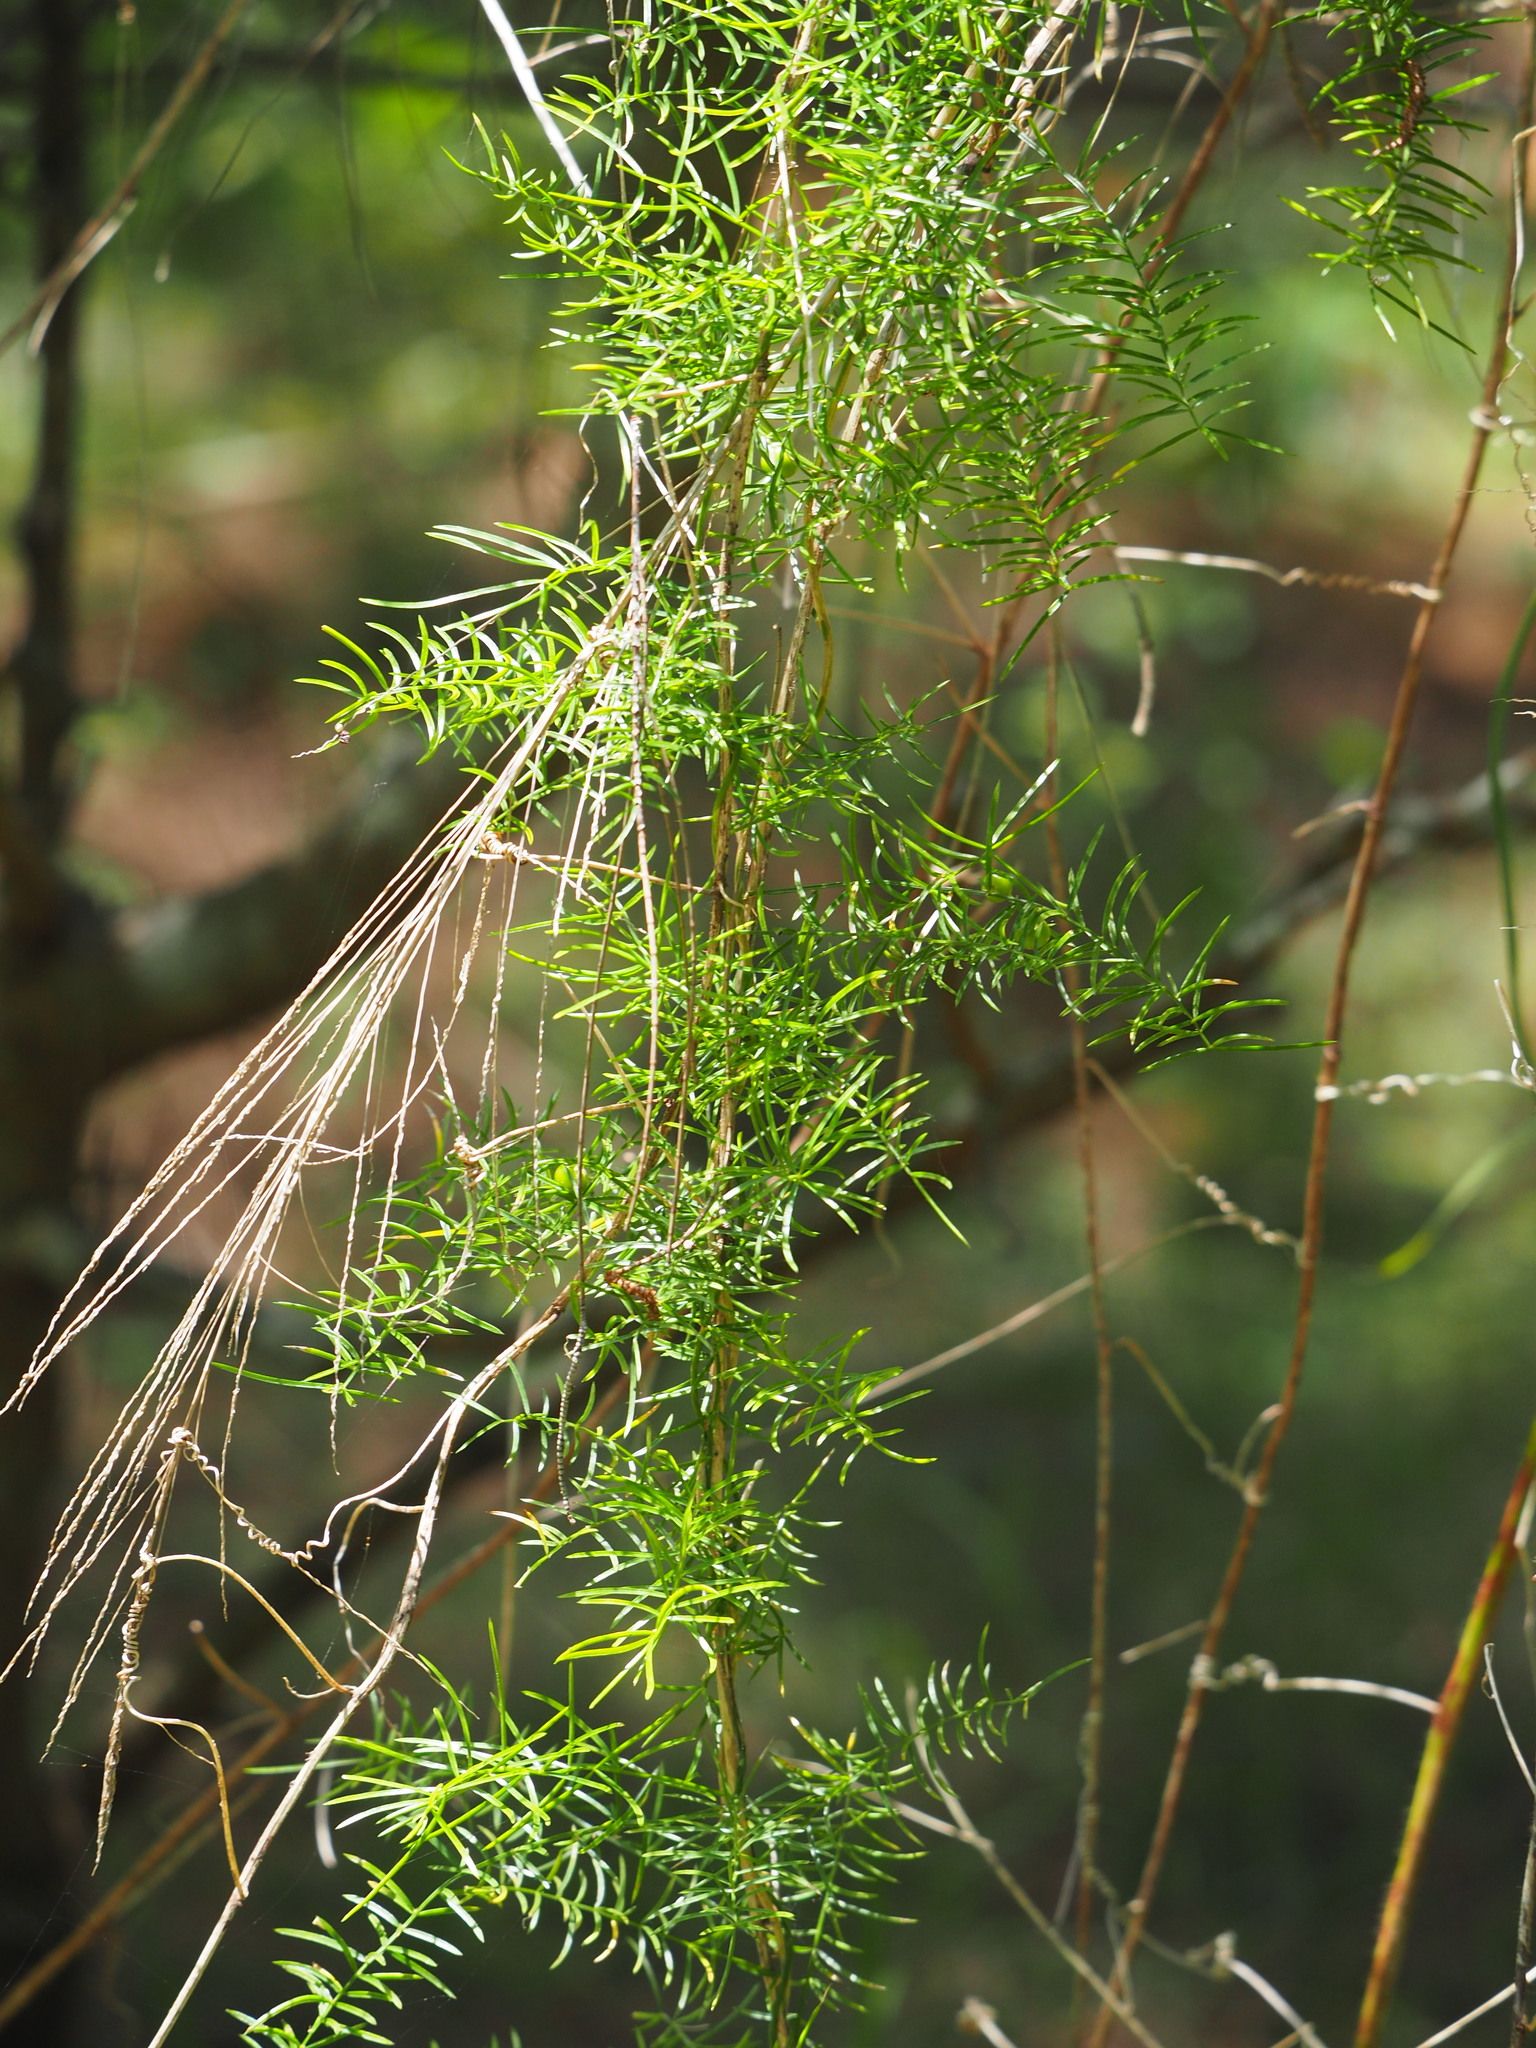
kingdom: Plantae
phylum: Tracheophyta
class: Liliopsida
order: Asparagales
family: Asparagaceae
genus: Asparagus
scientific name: Asparagus cochinchinensis
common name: Chinese asparagus
